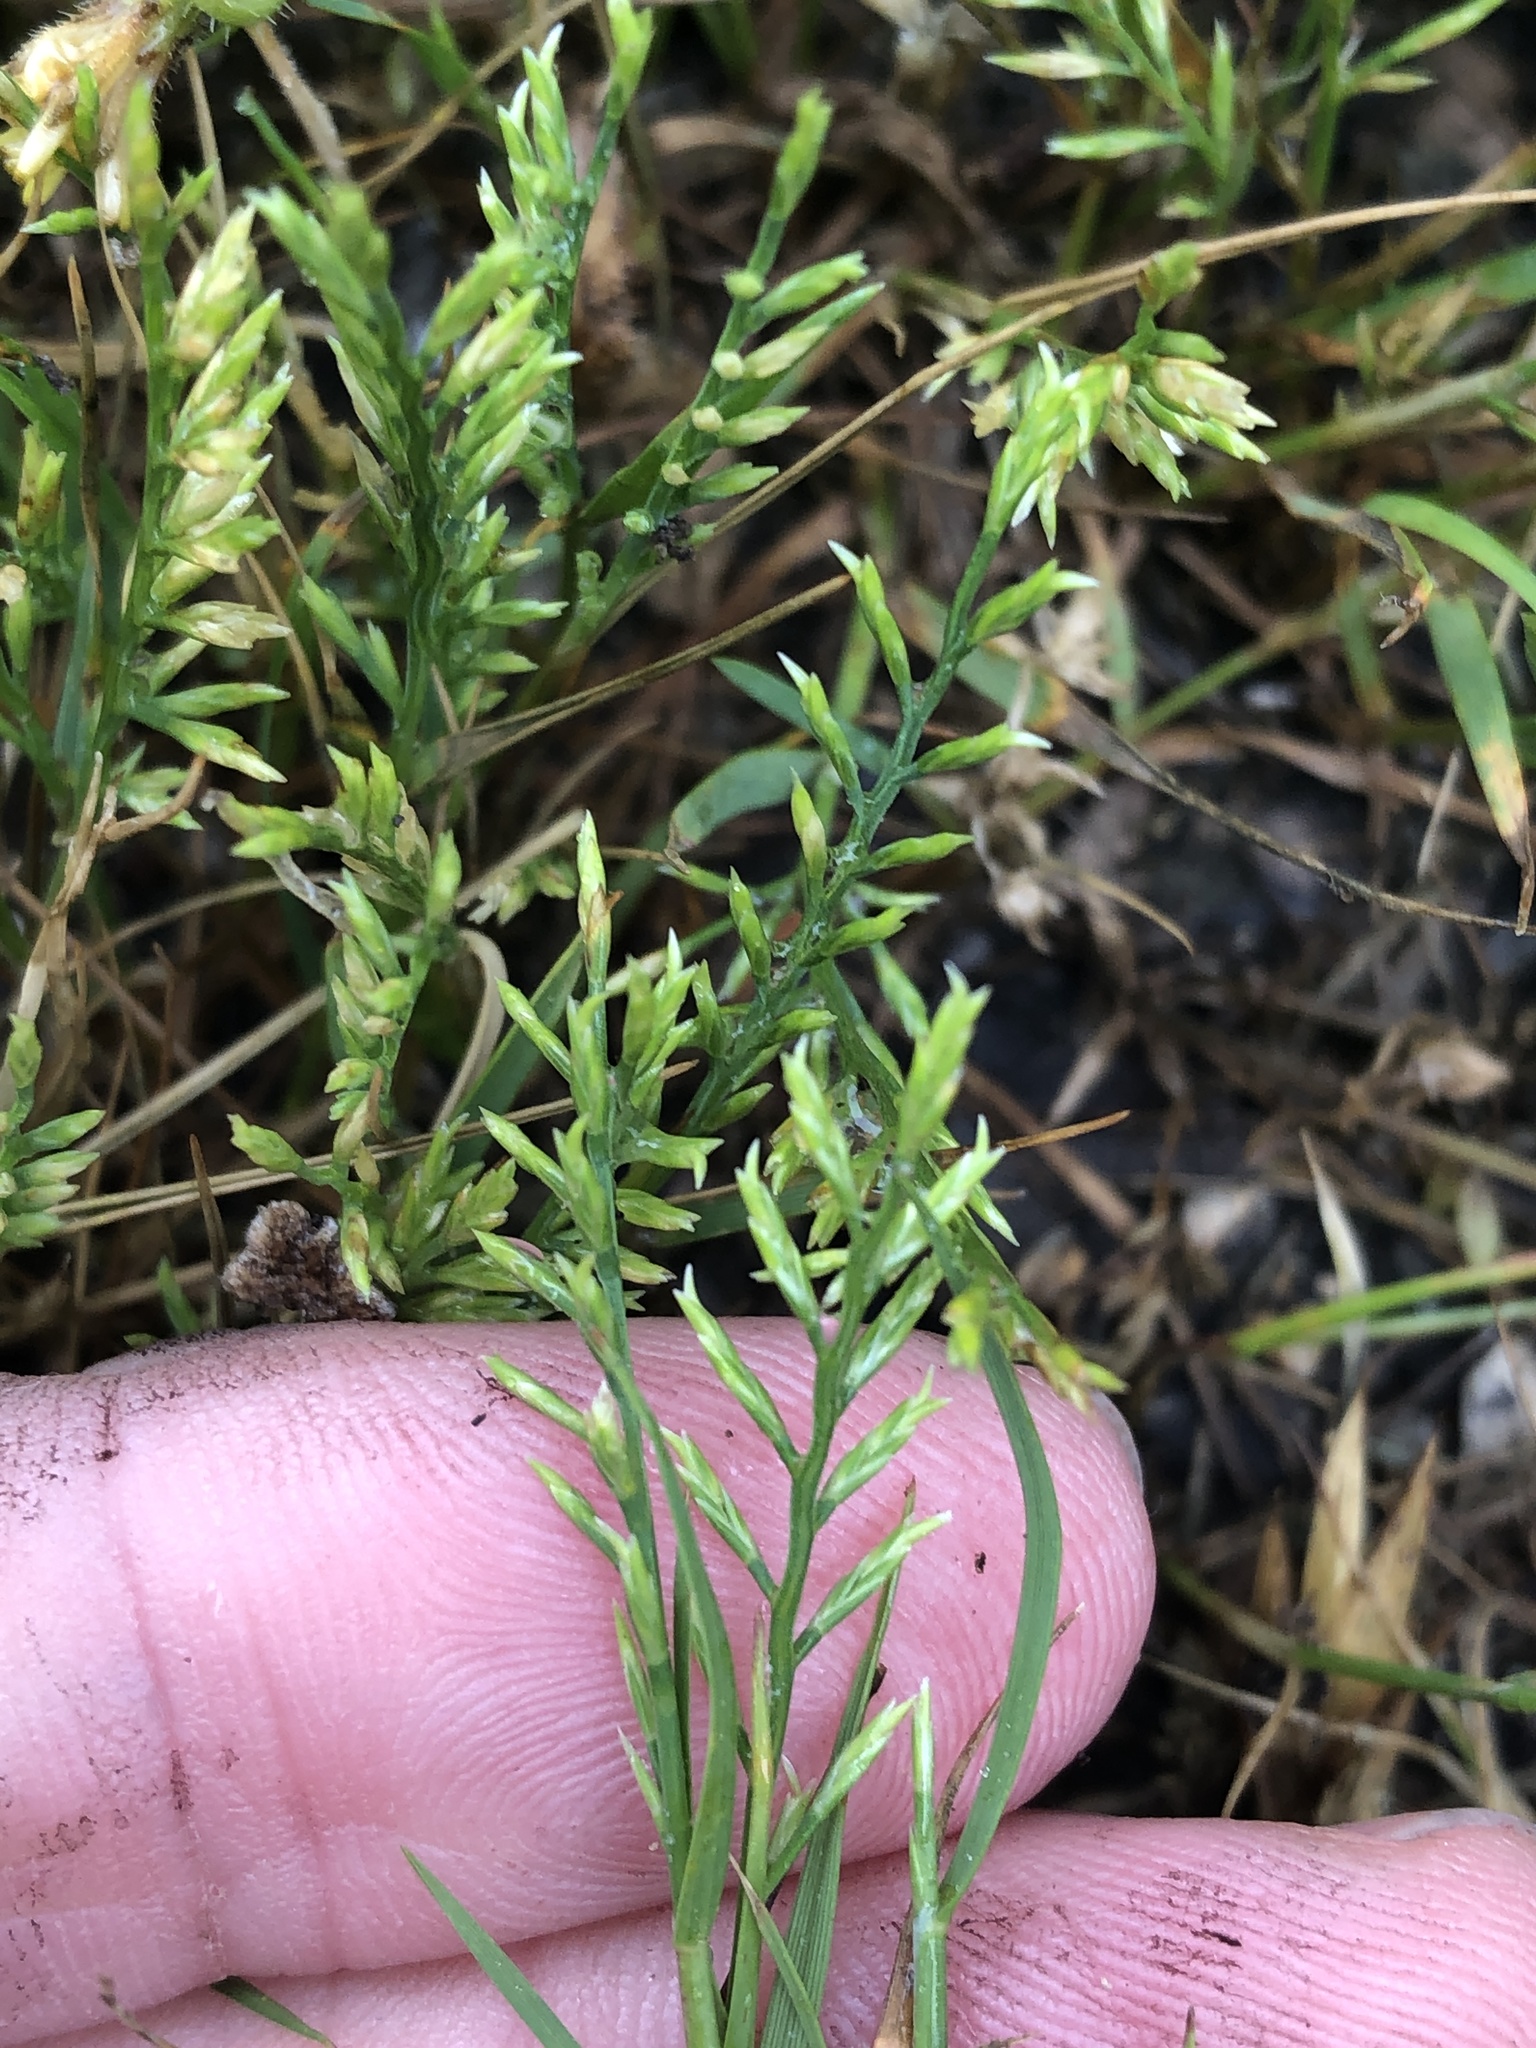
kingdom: Plantae
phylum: Tracheophyta
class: Liliopsida
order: Poales
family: Poaceae
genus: Catapodium
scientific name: Catapodium rigidum
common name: Fern-grass
